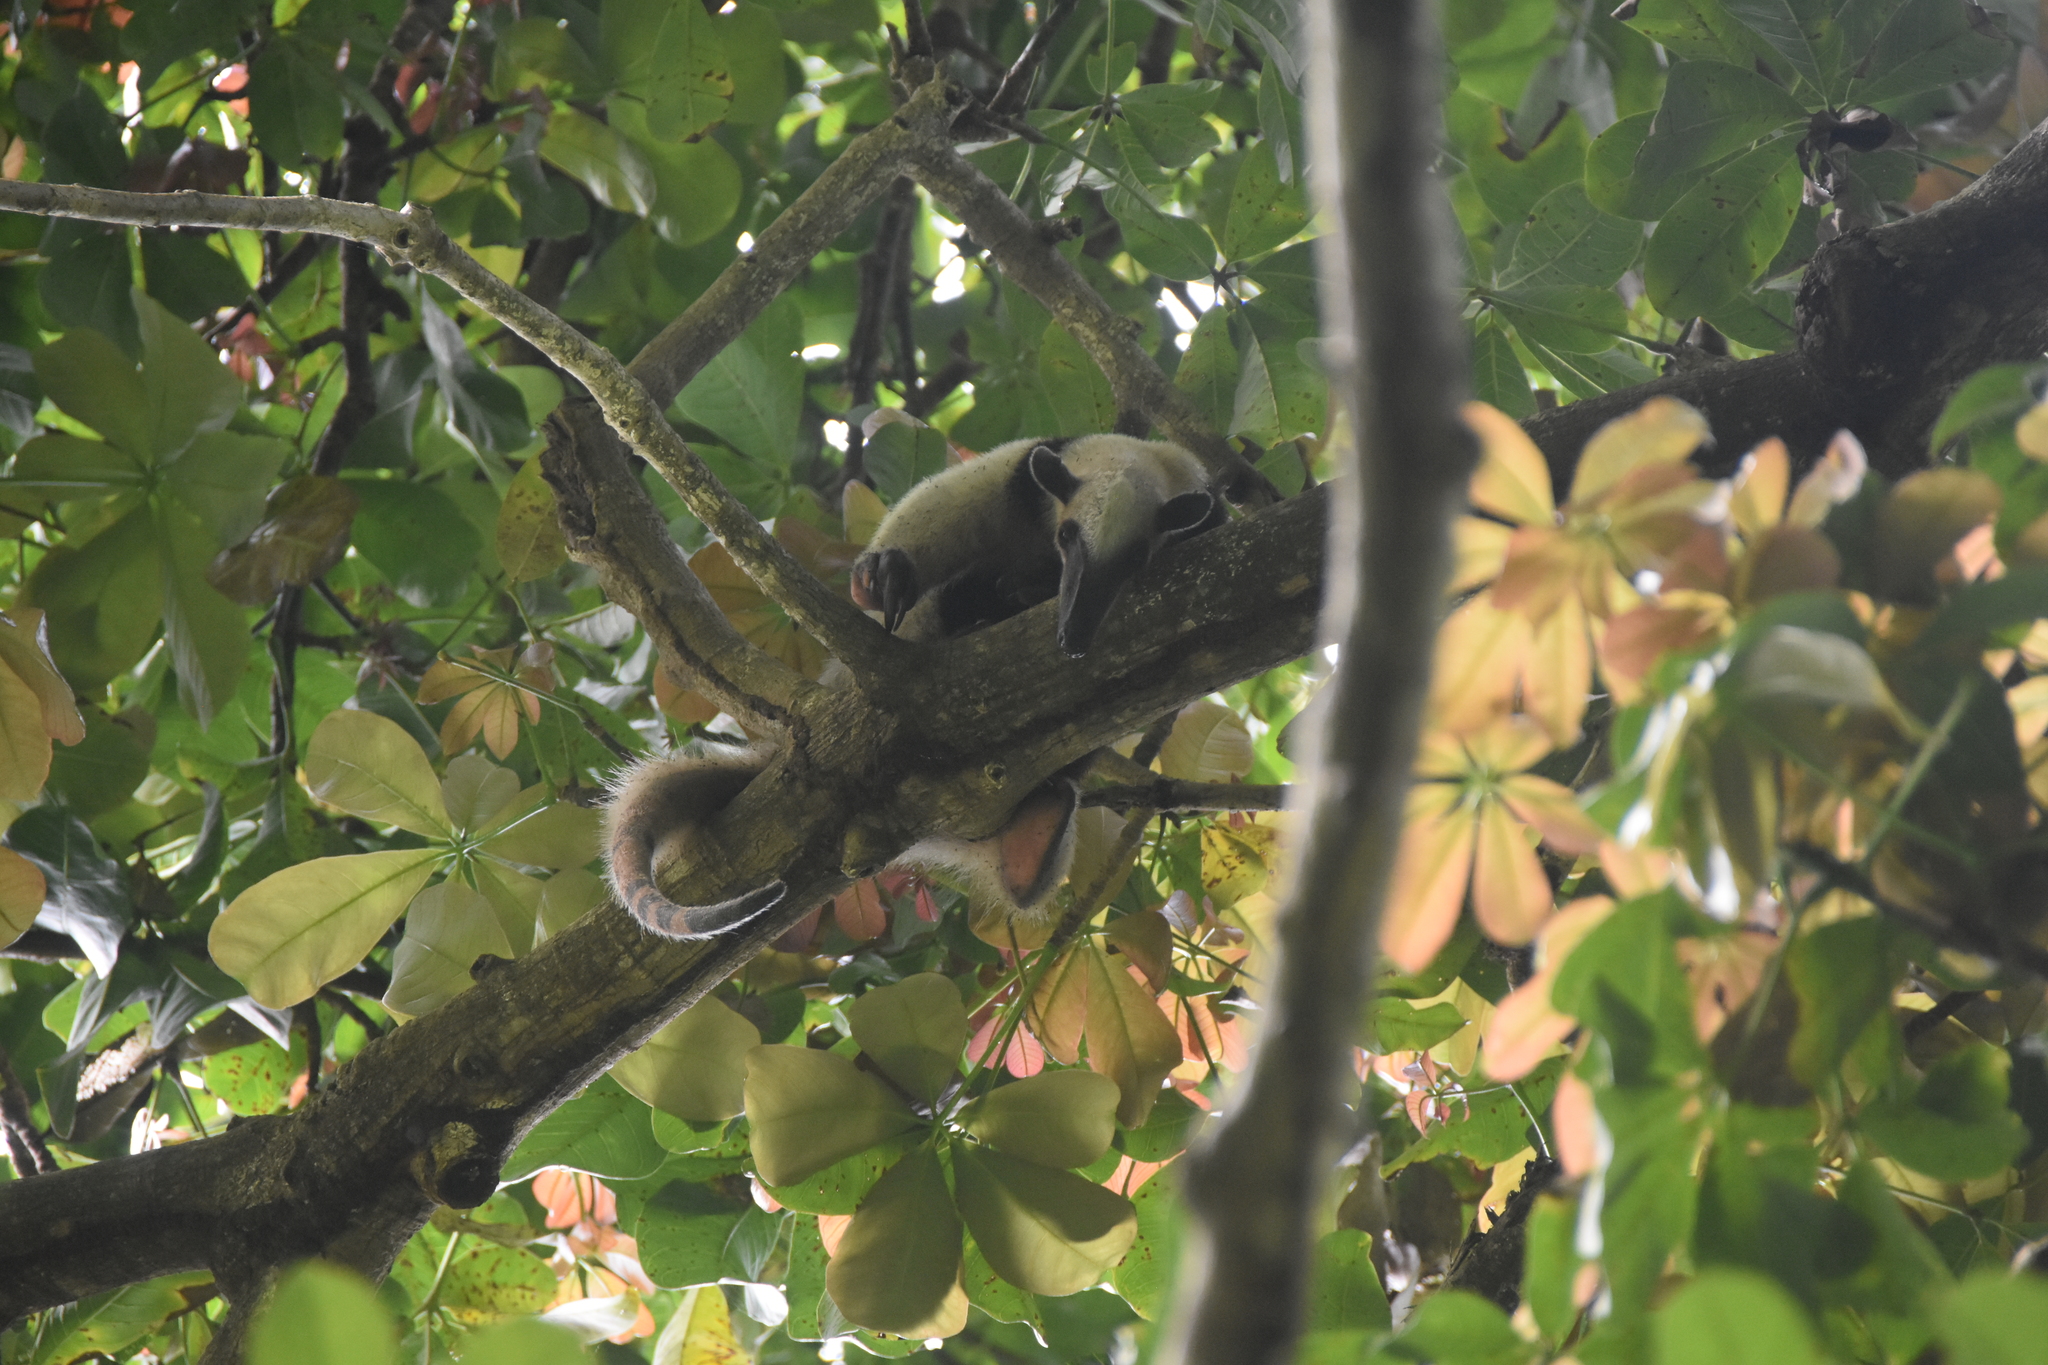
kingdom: Animalia
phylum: Chordata
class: Mammalia
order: Pilosa
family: Myrmecophagidae
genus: Tamandua
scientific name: Tamandua mexicana
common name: Northern tamandua
